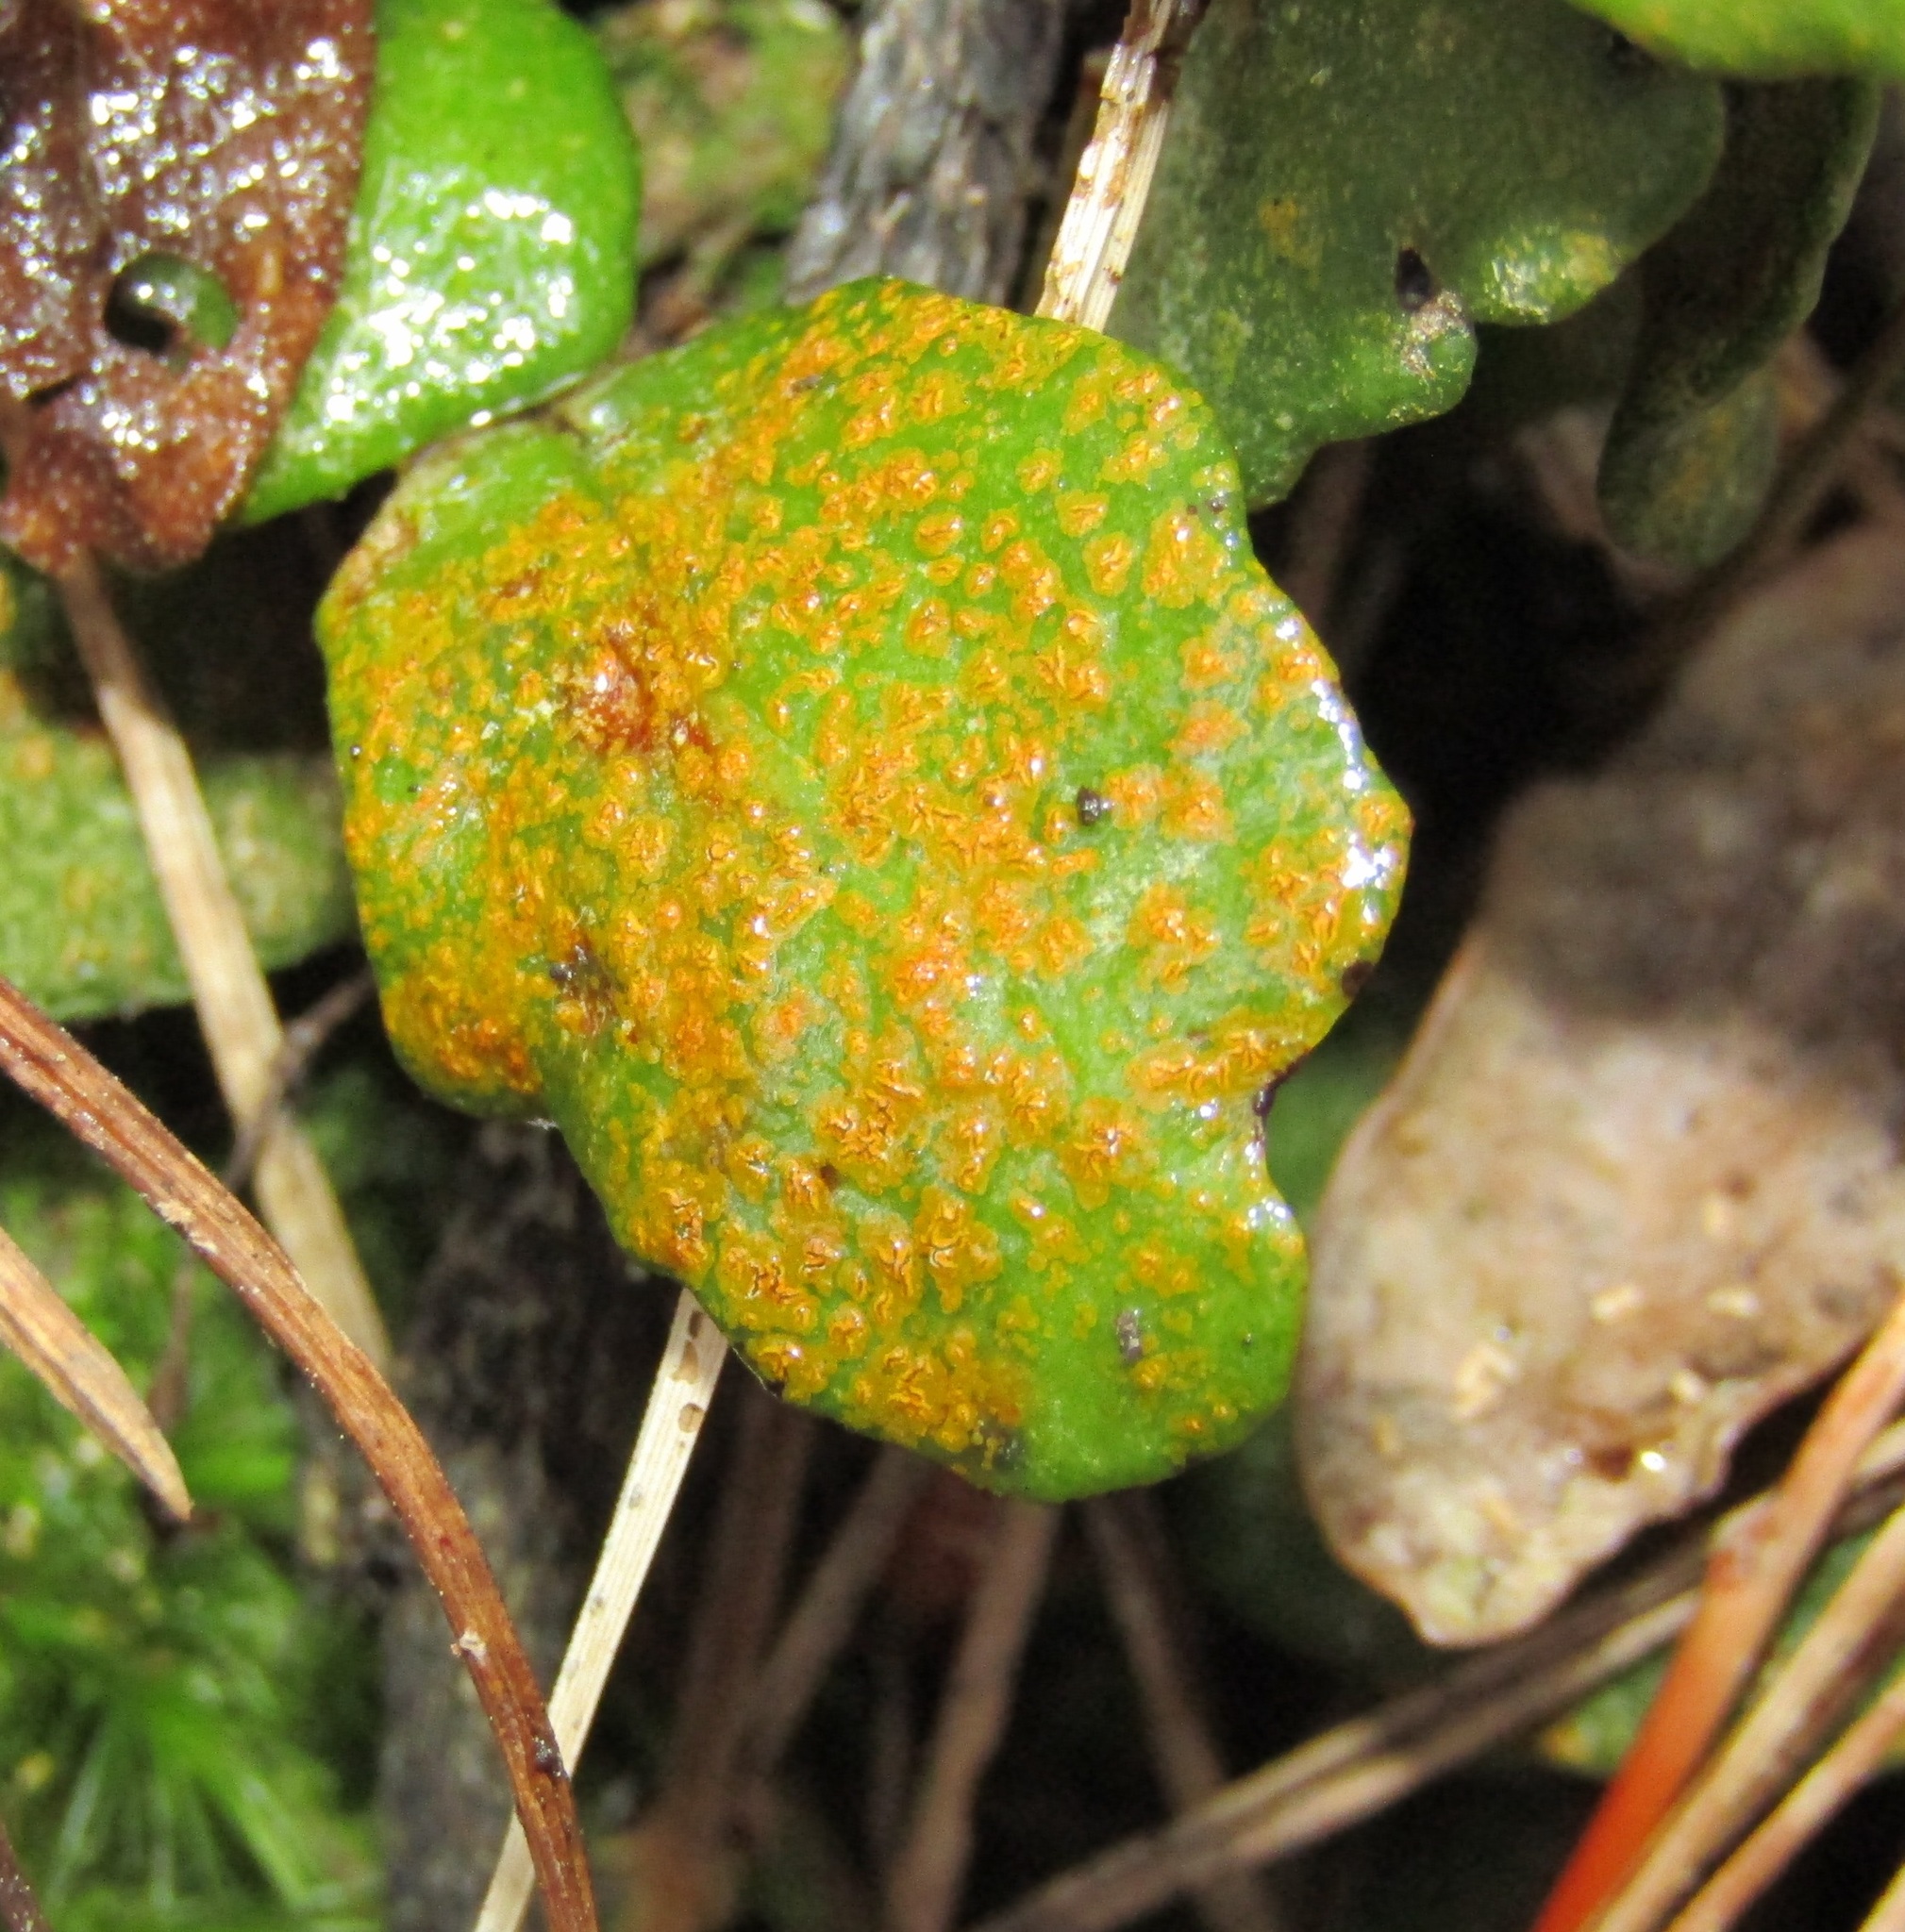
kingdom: Fungi
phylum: Ascomycota
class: Arthoniomycetes
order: Arthoniales
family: Roccellaceae
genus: Enterographa
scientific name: Enterographa bella
